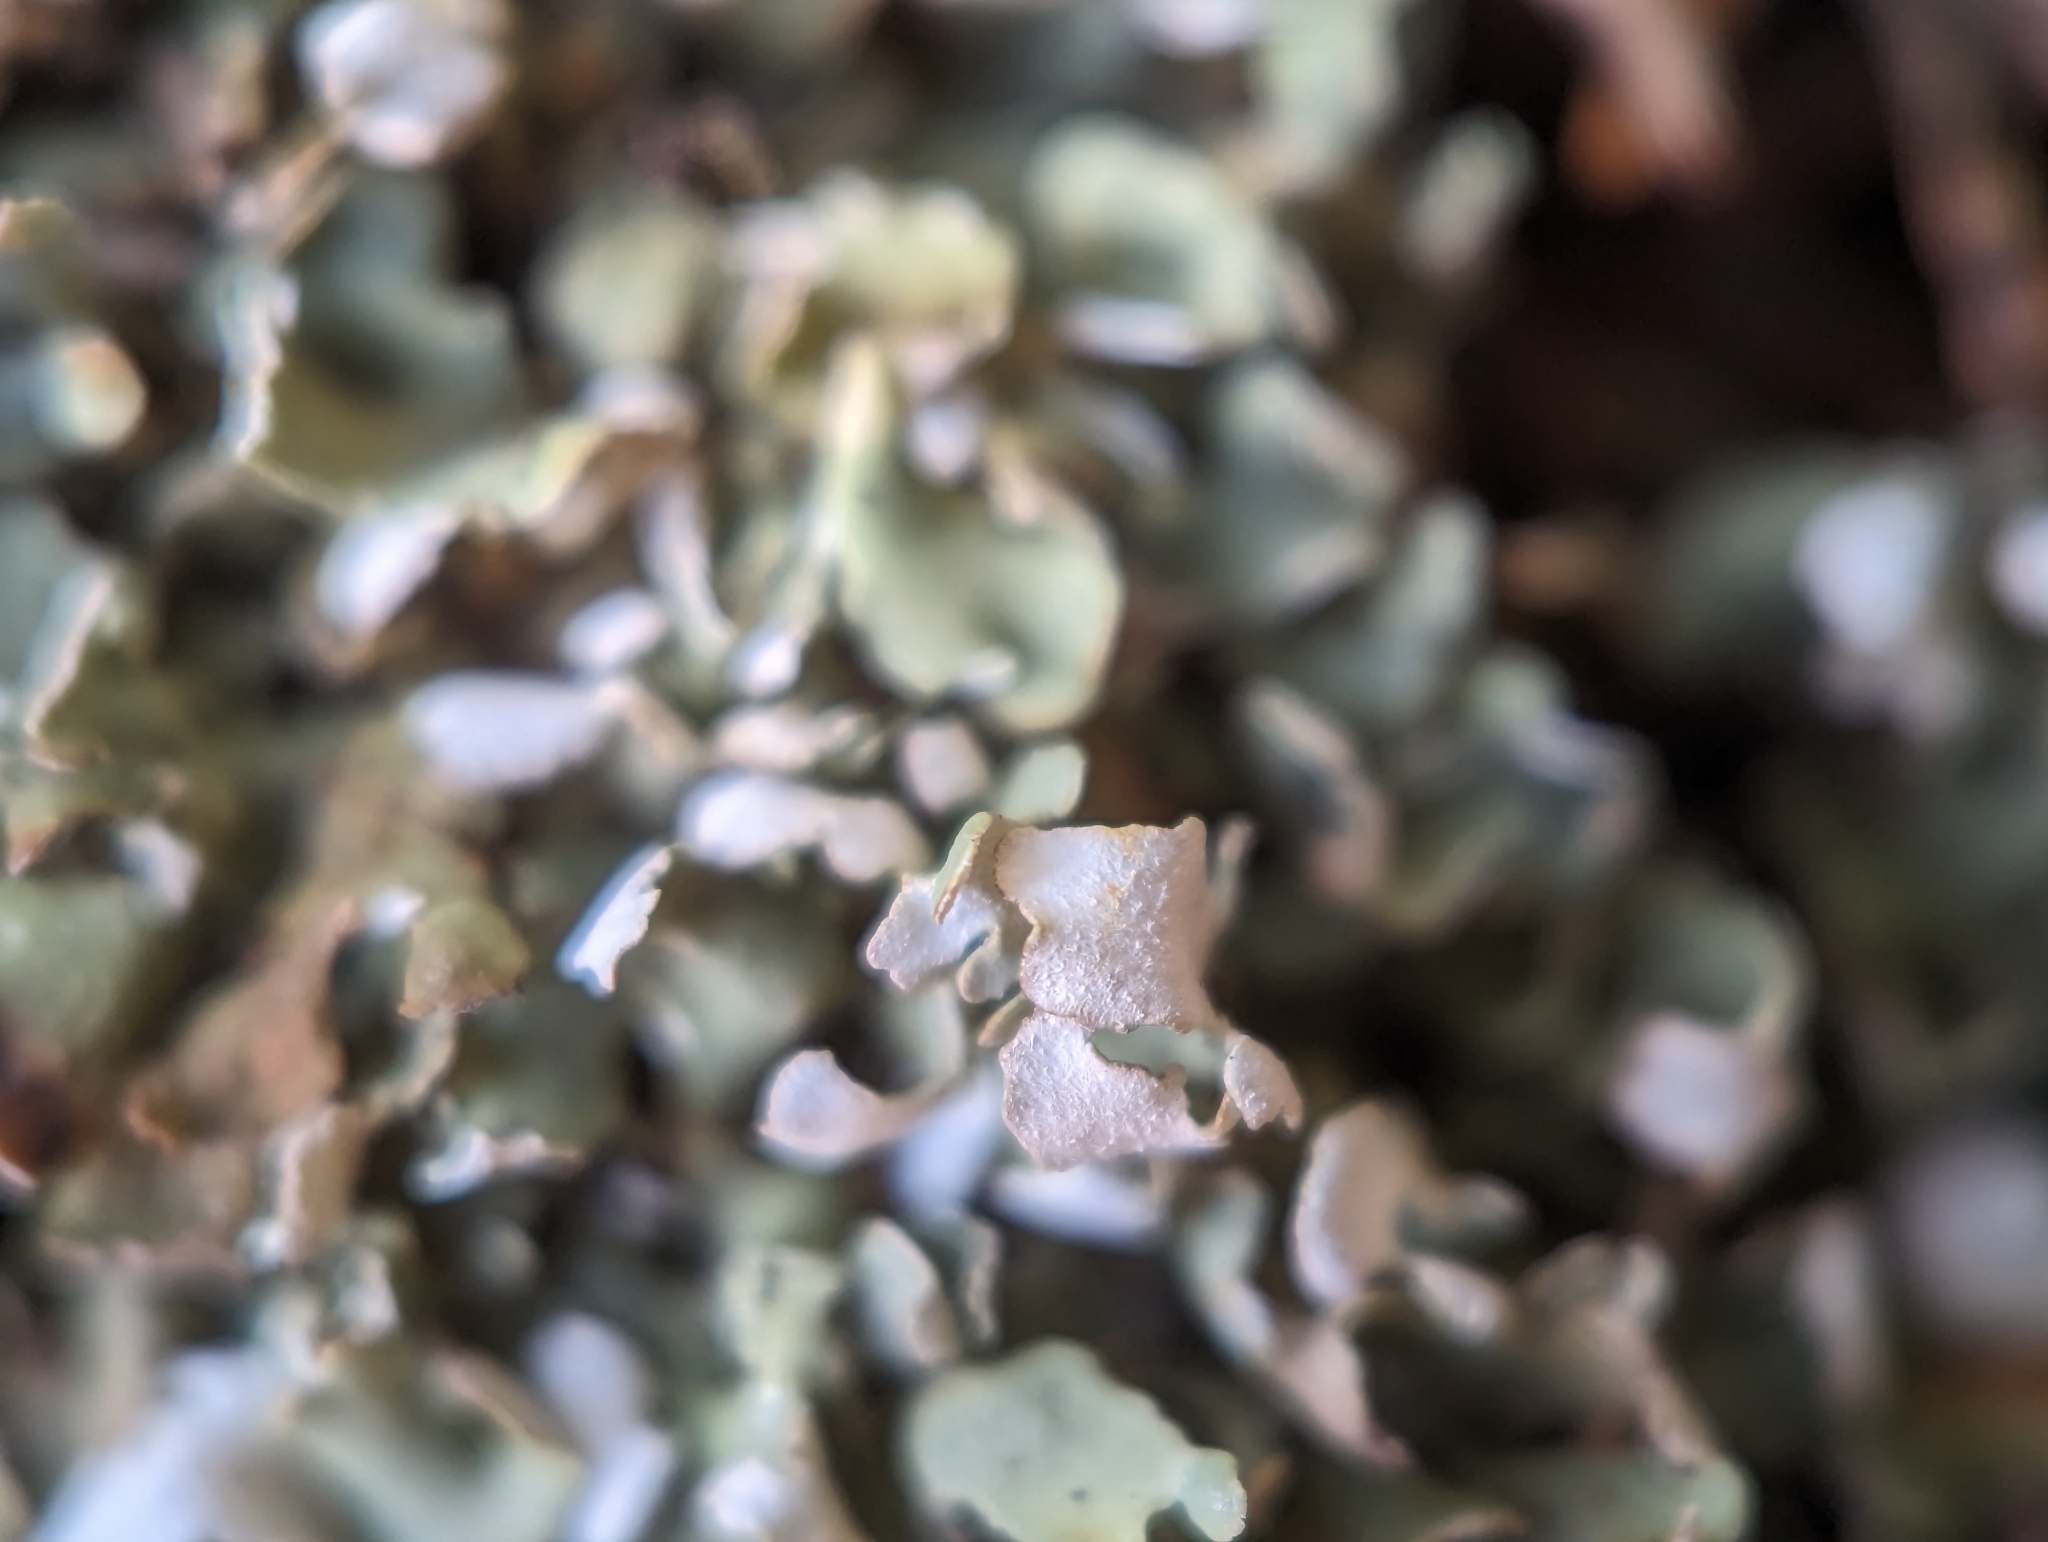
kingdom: Fungi
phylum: Ascomycota
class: Lecanoromycetes
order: Lecanorales
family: Cladoniaceae
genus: Cladonia
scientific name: Cladonia apodocarpa
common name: Stalkless cladonia
